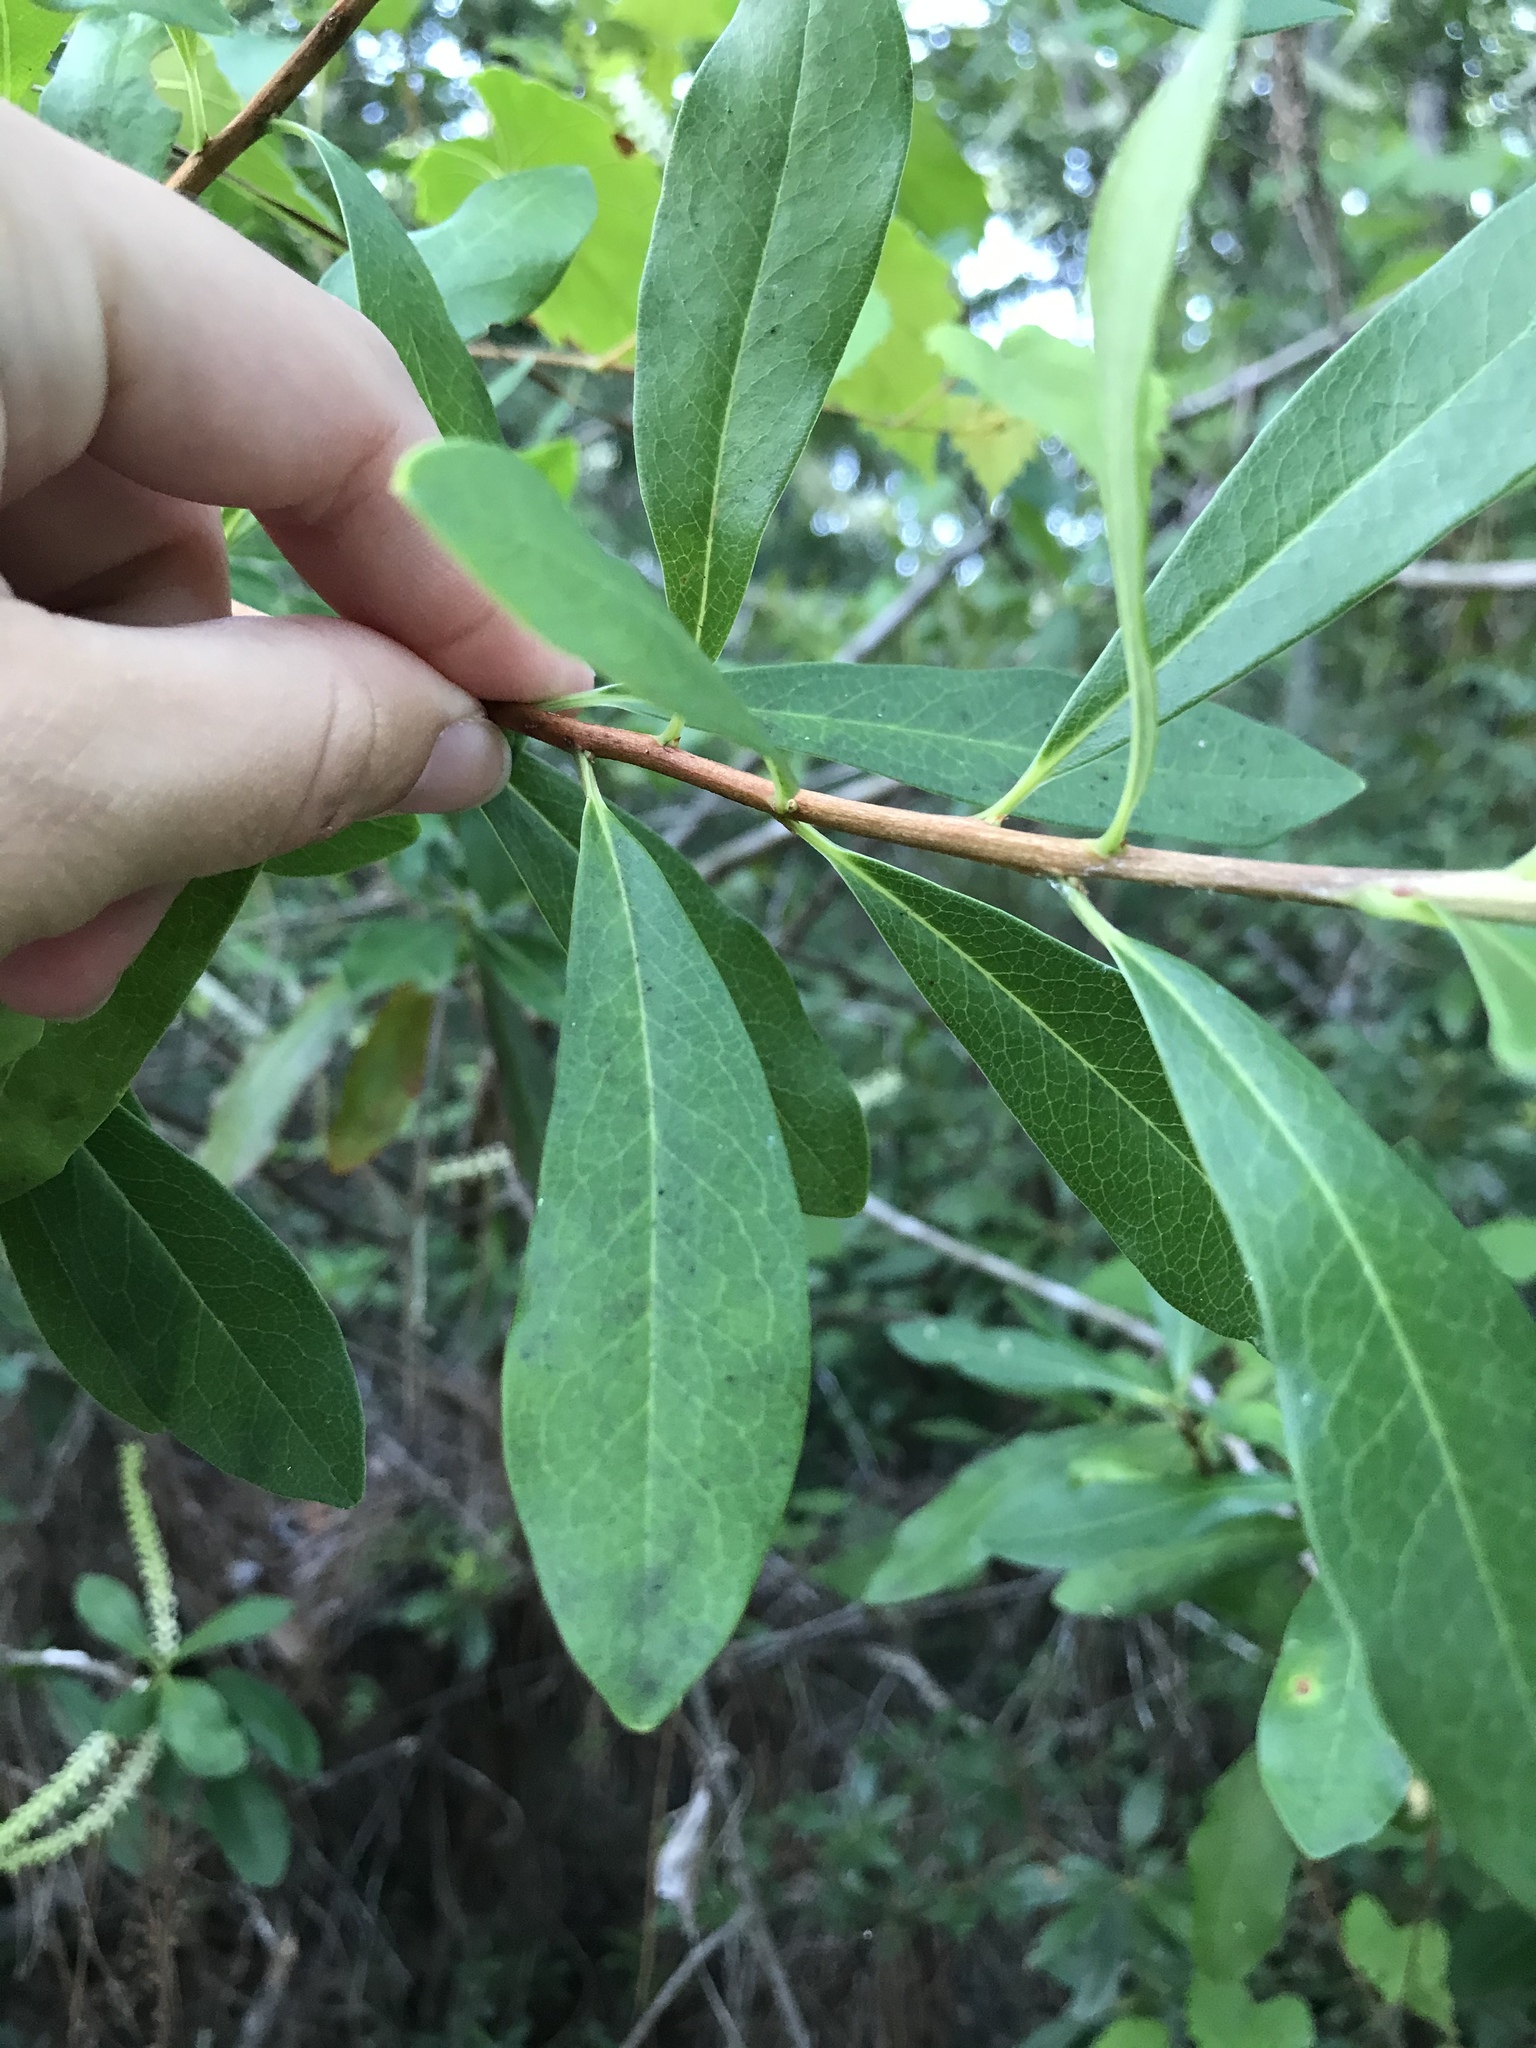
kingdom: Plantae
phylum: Tracheophyta
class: Magnoliopsida
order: Ericales
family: Cyrillaceae
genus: Cyrilla
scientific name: Cyrilla racemiflora
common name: Black titi
